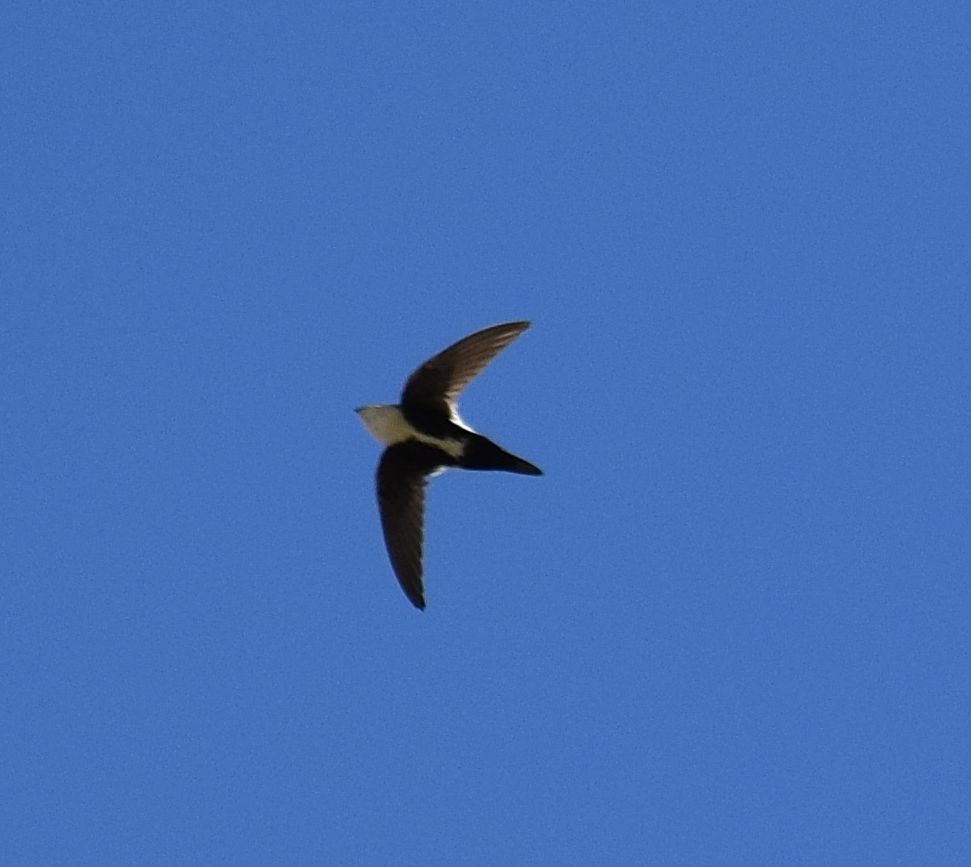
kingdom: Animalia
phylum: Chordata
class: Aves
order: Apodiformes
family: Apodidae
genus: Aeronautes
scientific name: Aeronautes saxatalis
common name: White-throated swift
